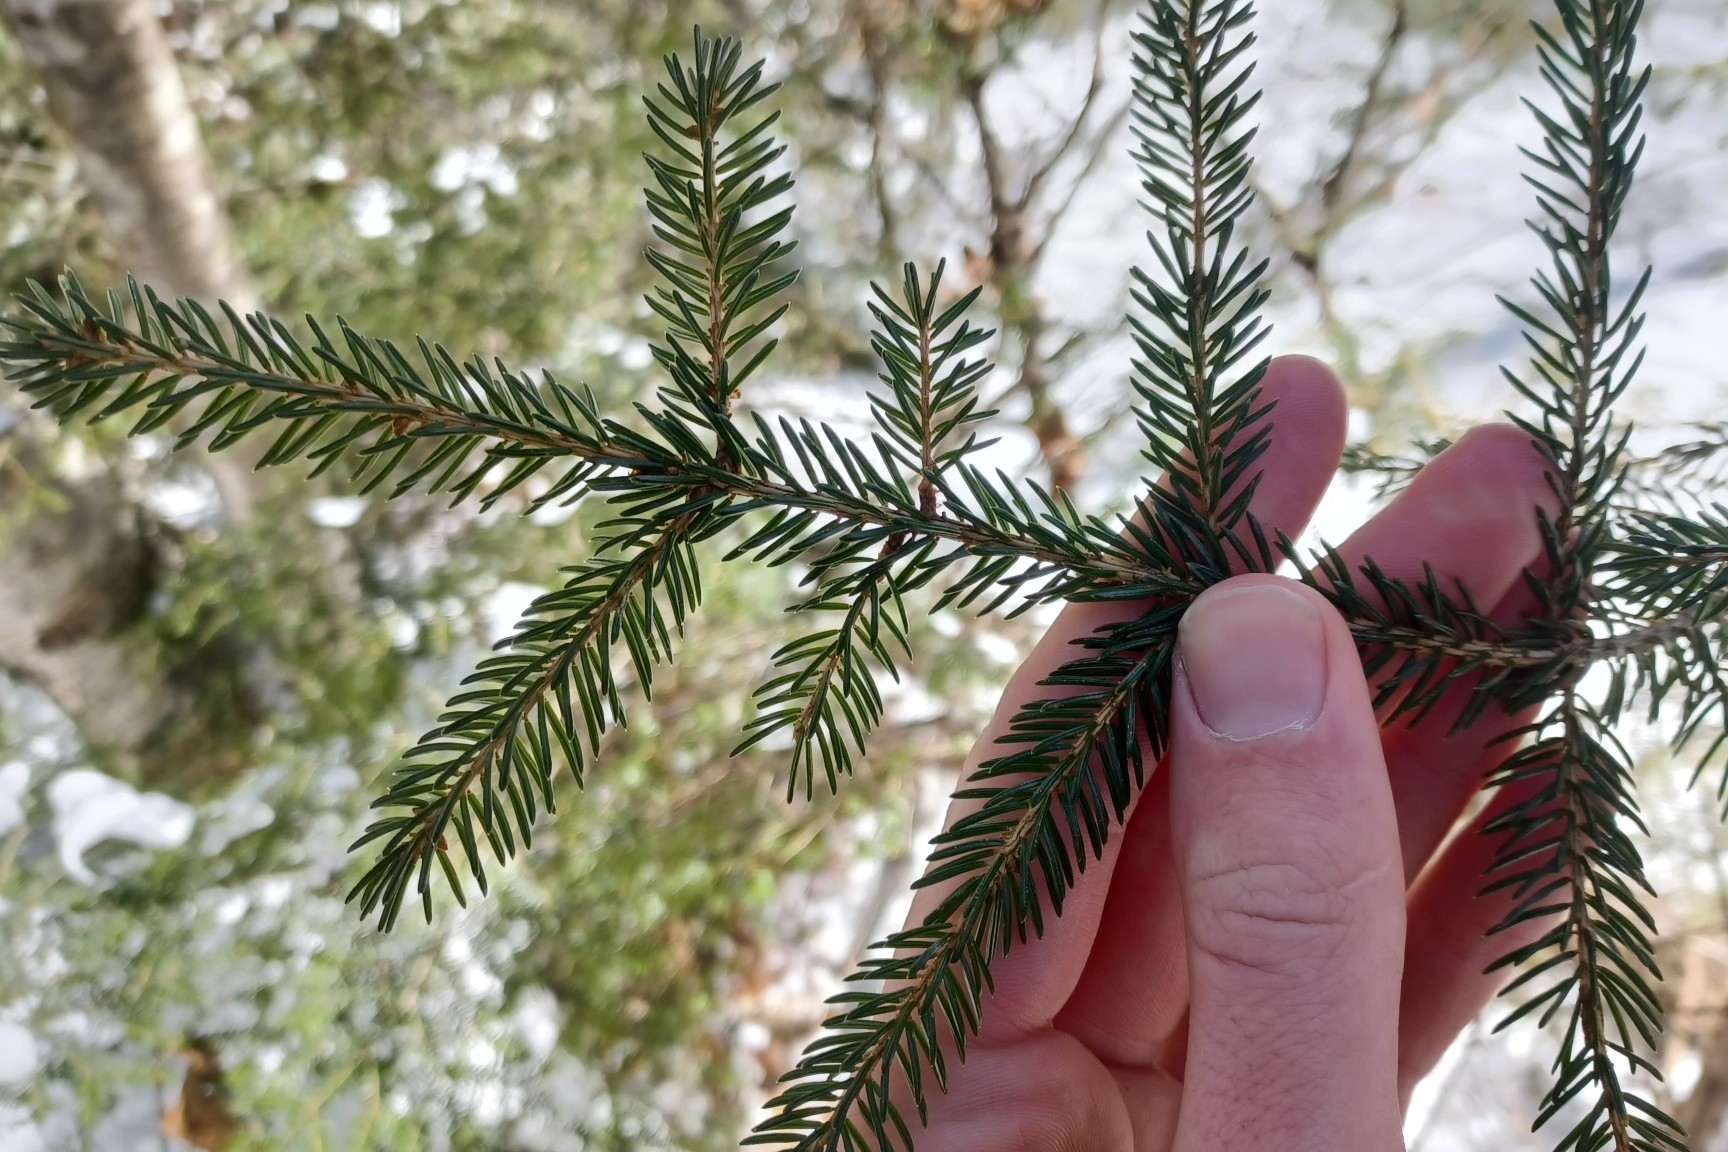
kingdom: Plantae
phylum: Tracheophyta
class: Pinopsida
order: Pinales
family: Pinaceae
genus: Picea
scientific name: Picea rubens
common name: Red spruce
